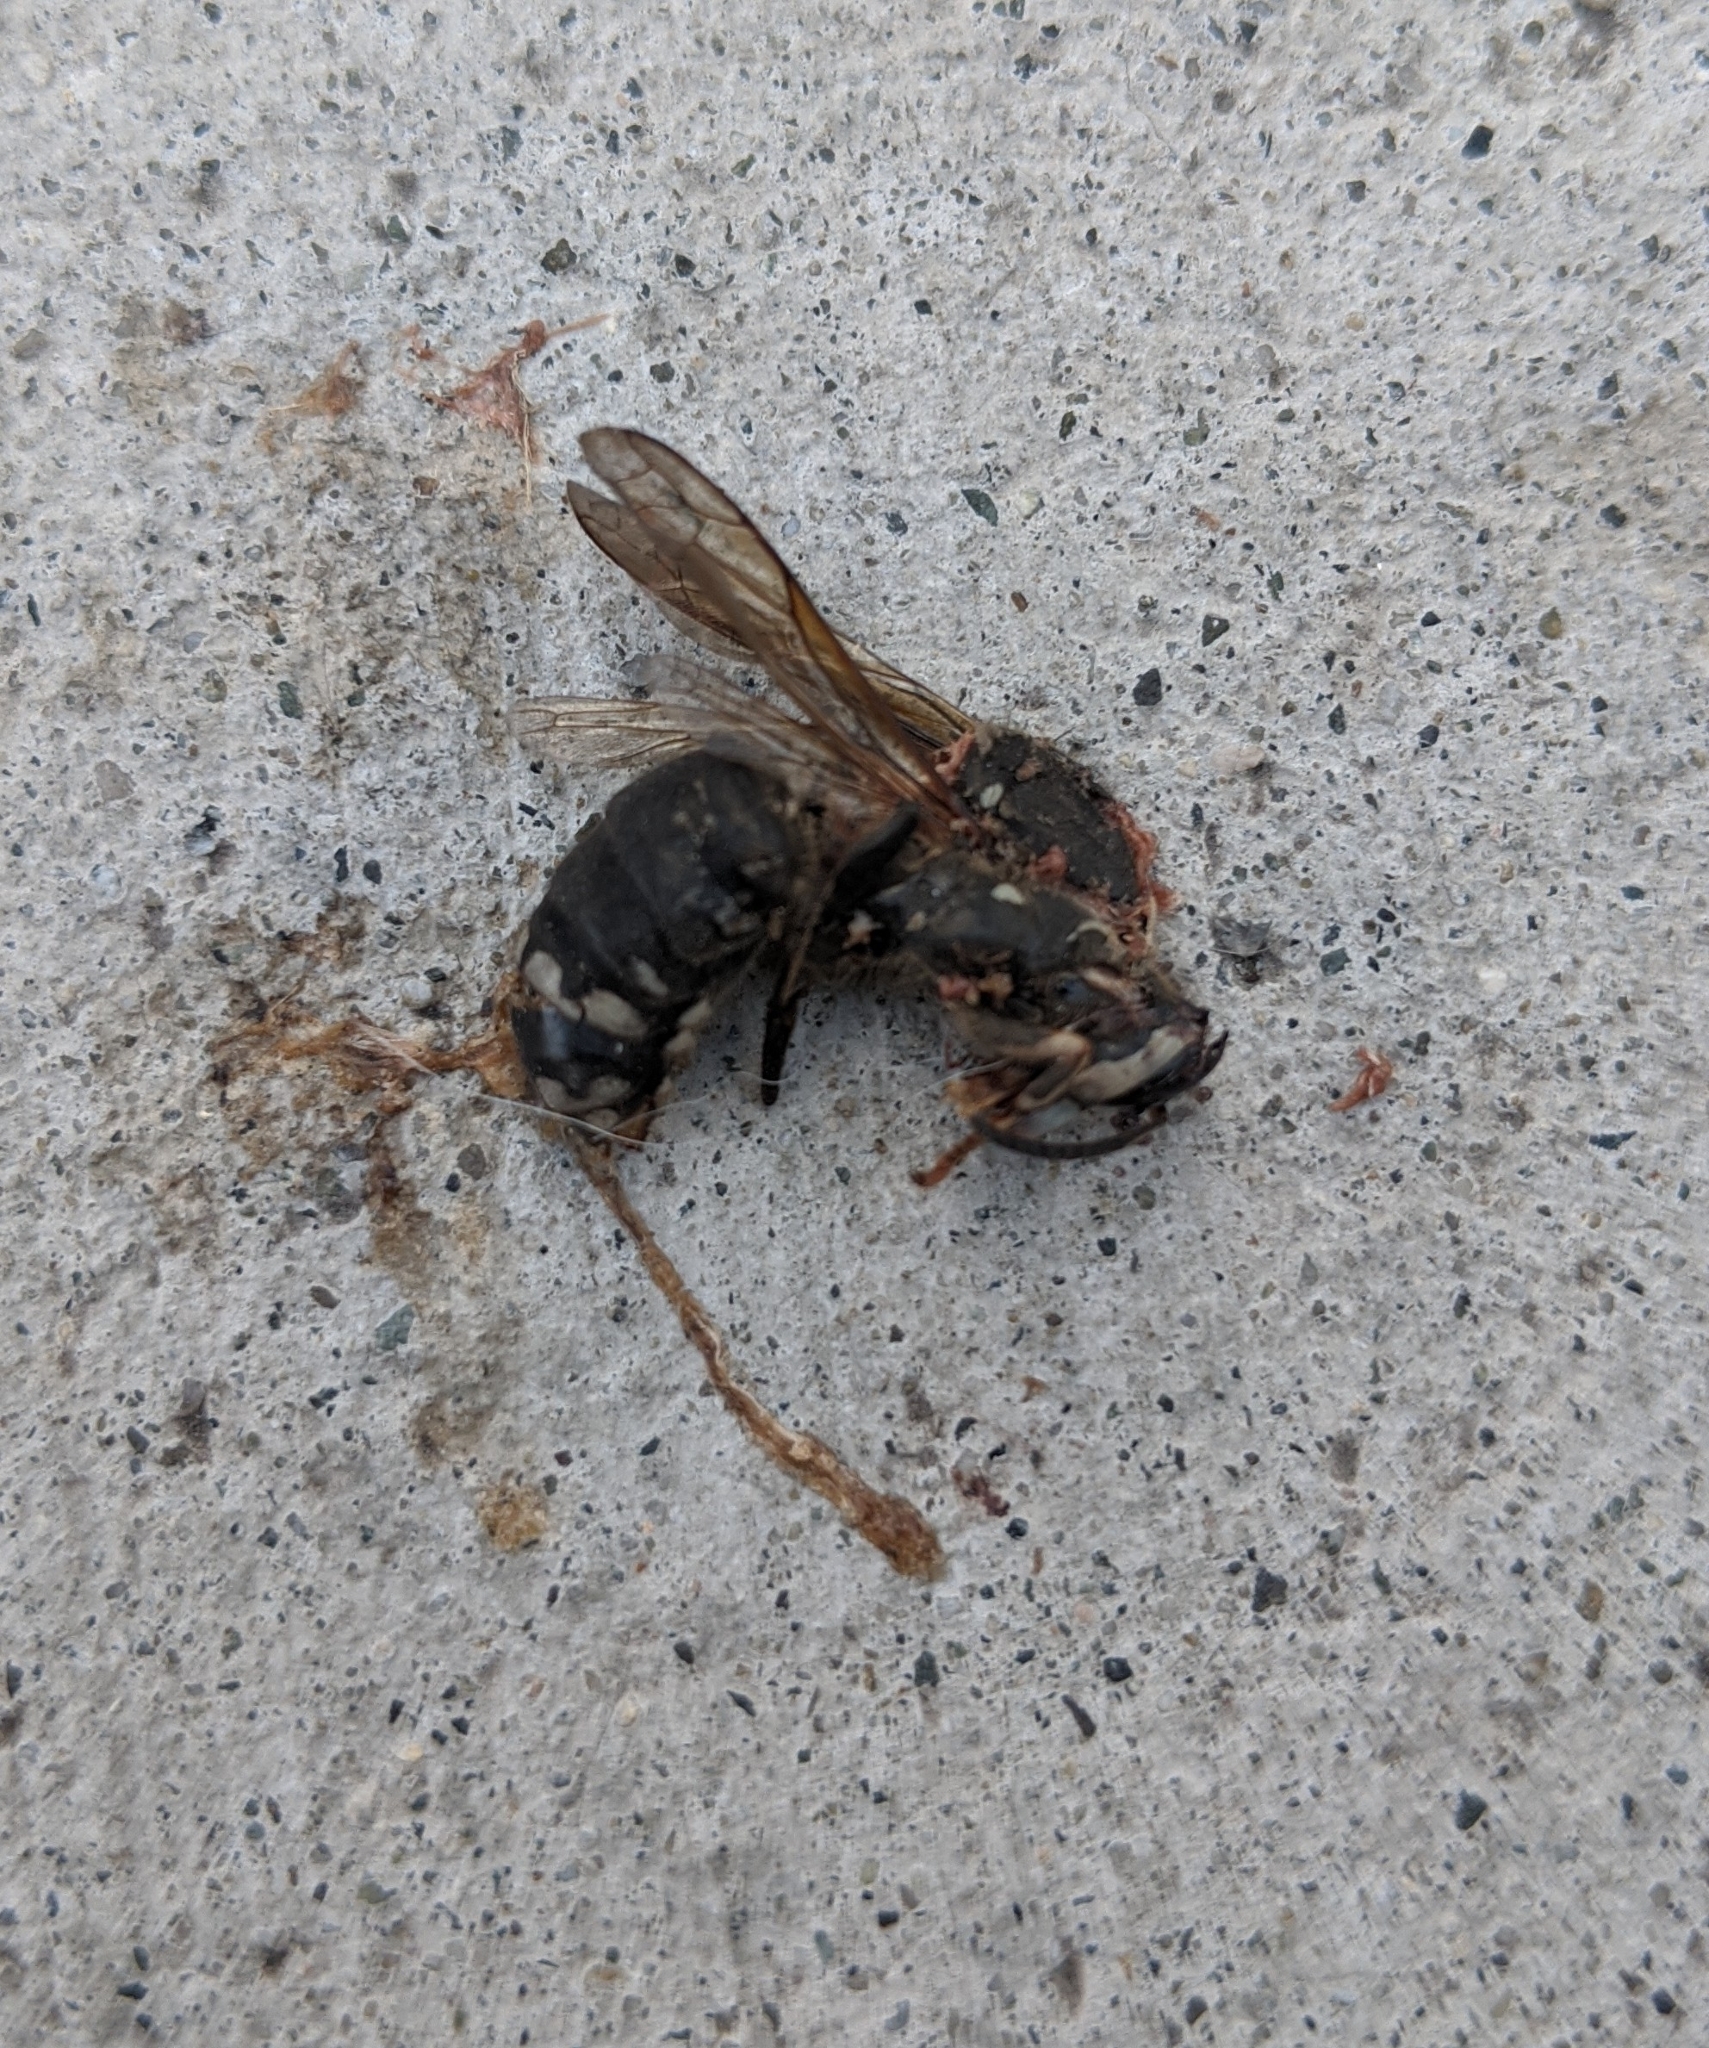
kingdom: Animalia
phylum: Arthropoda
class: Insecta
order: Hymenoptera
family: Vespidae
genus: Dolichovespula
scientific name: Dolichovespula maculata
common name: Bald-faced hornet
